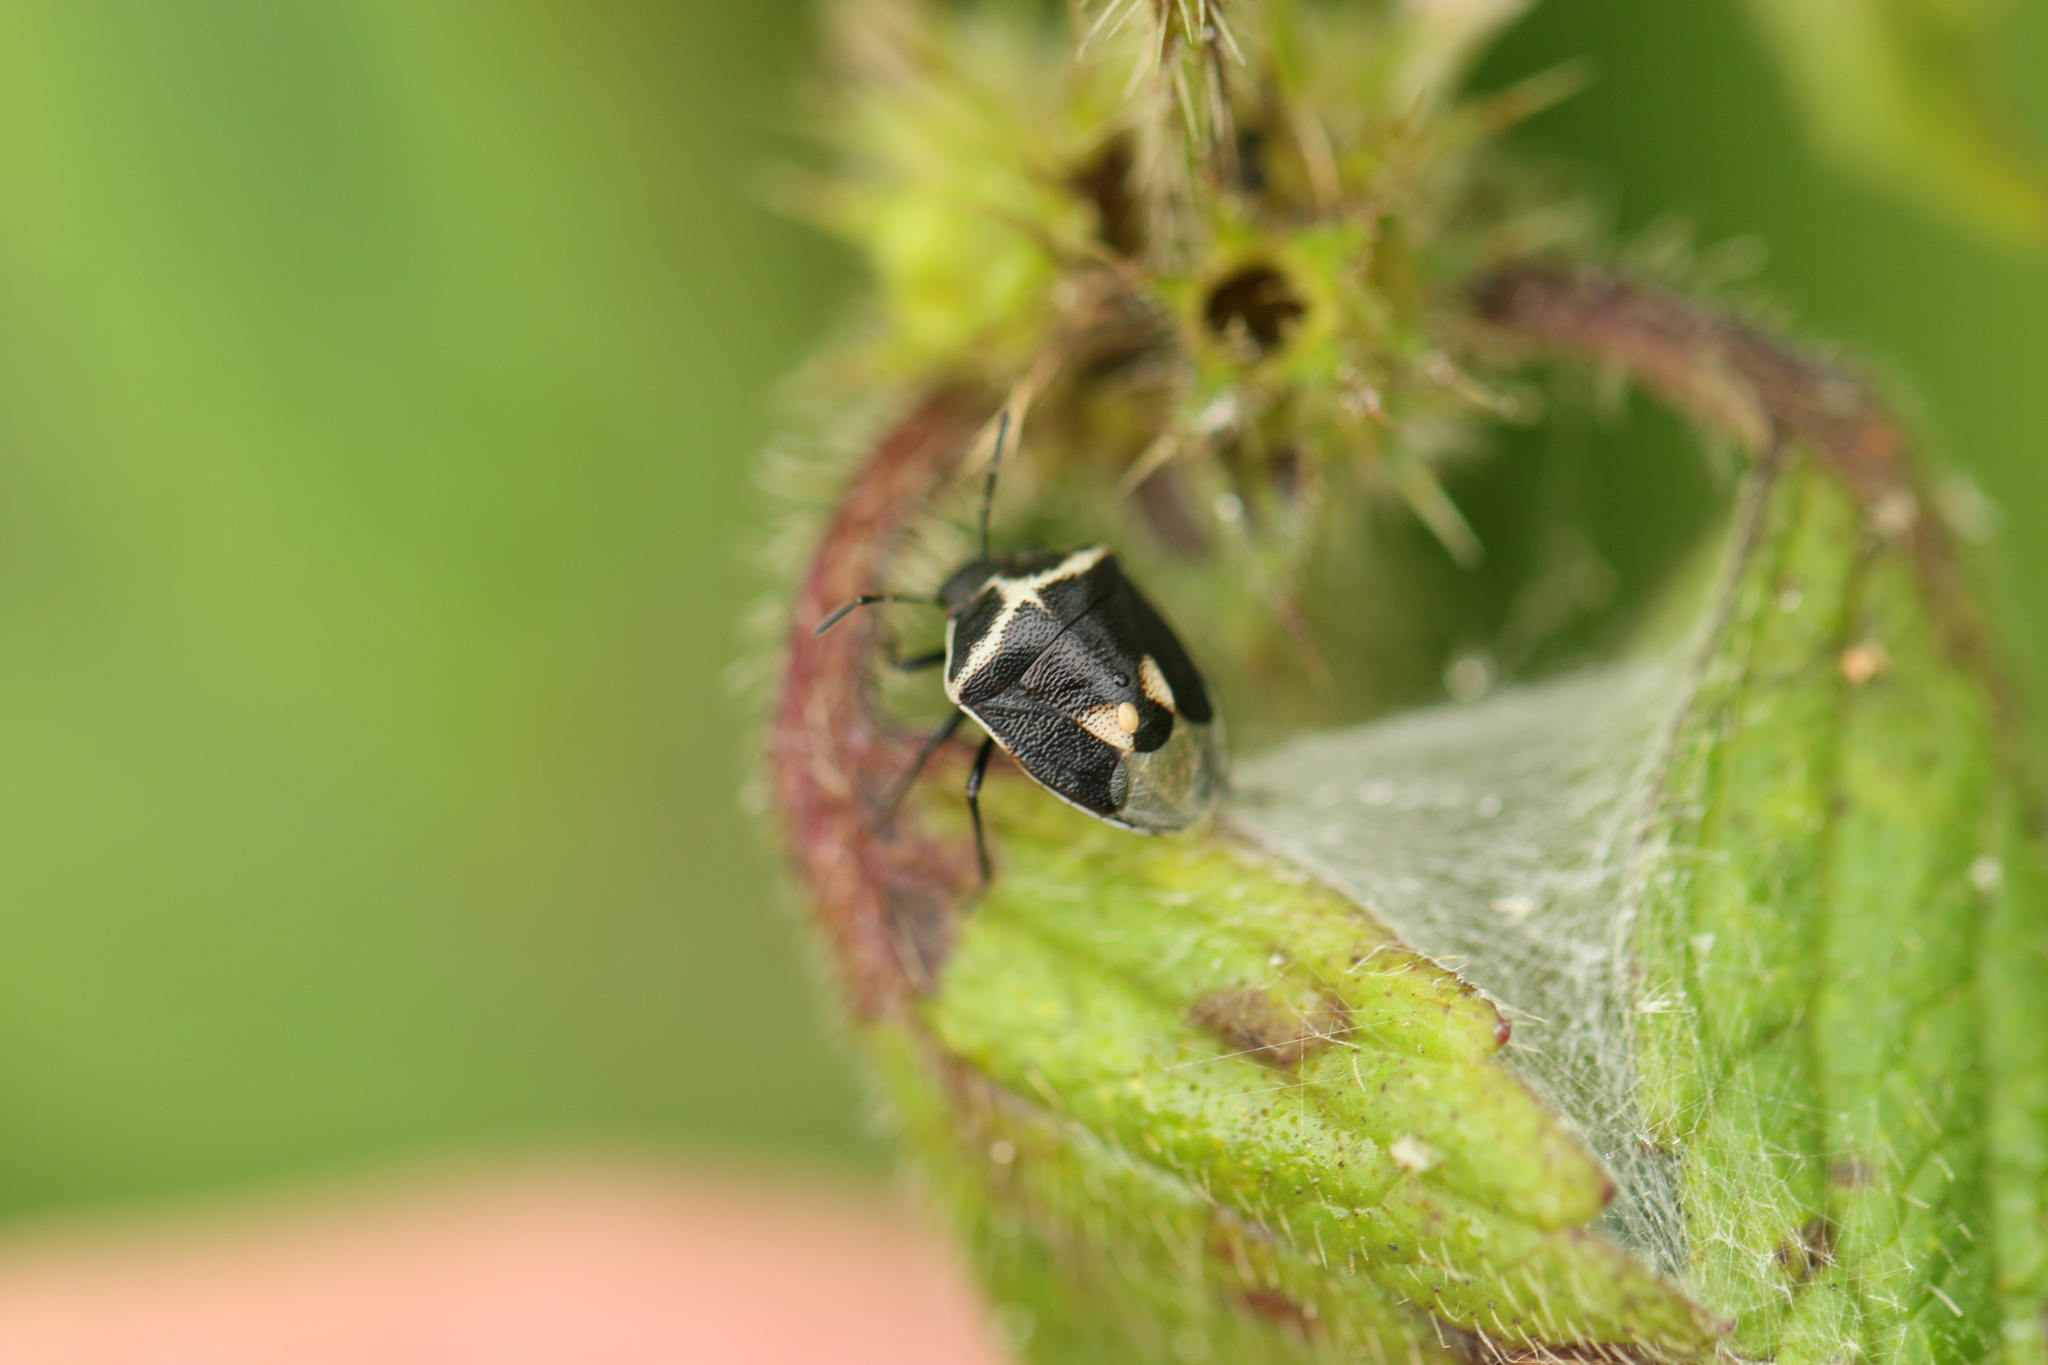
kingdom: Animalia
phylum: Arthropoda
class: Insecta
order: Hemiptera
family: Pentatomidae
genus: Cosmopepla
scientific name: Cosmopepla lintneriana
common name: Twice-stabbed stink bug
